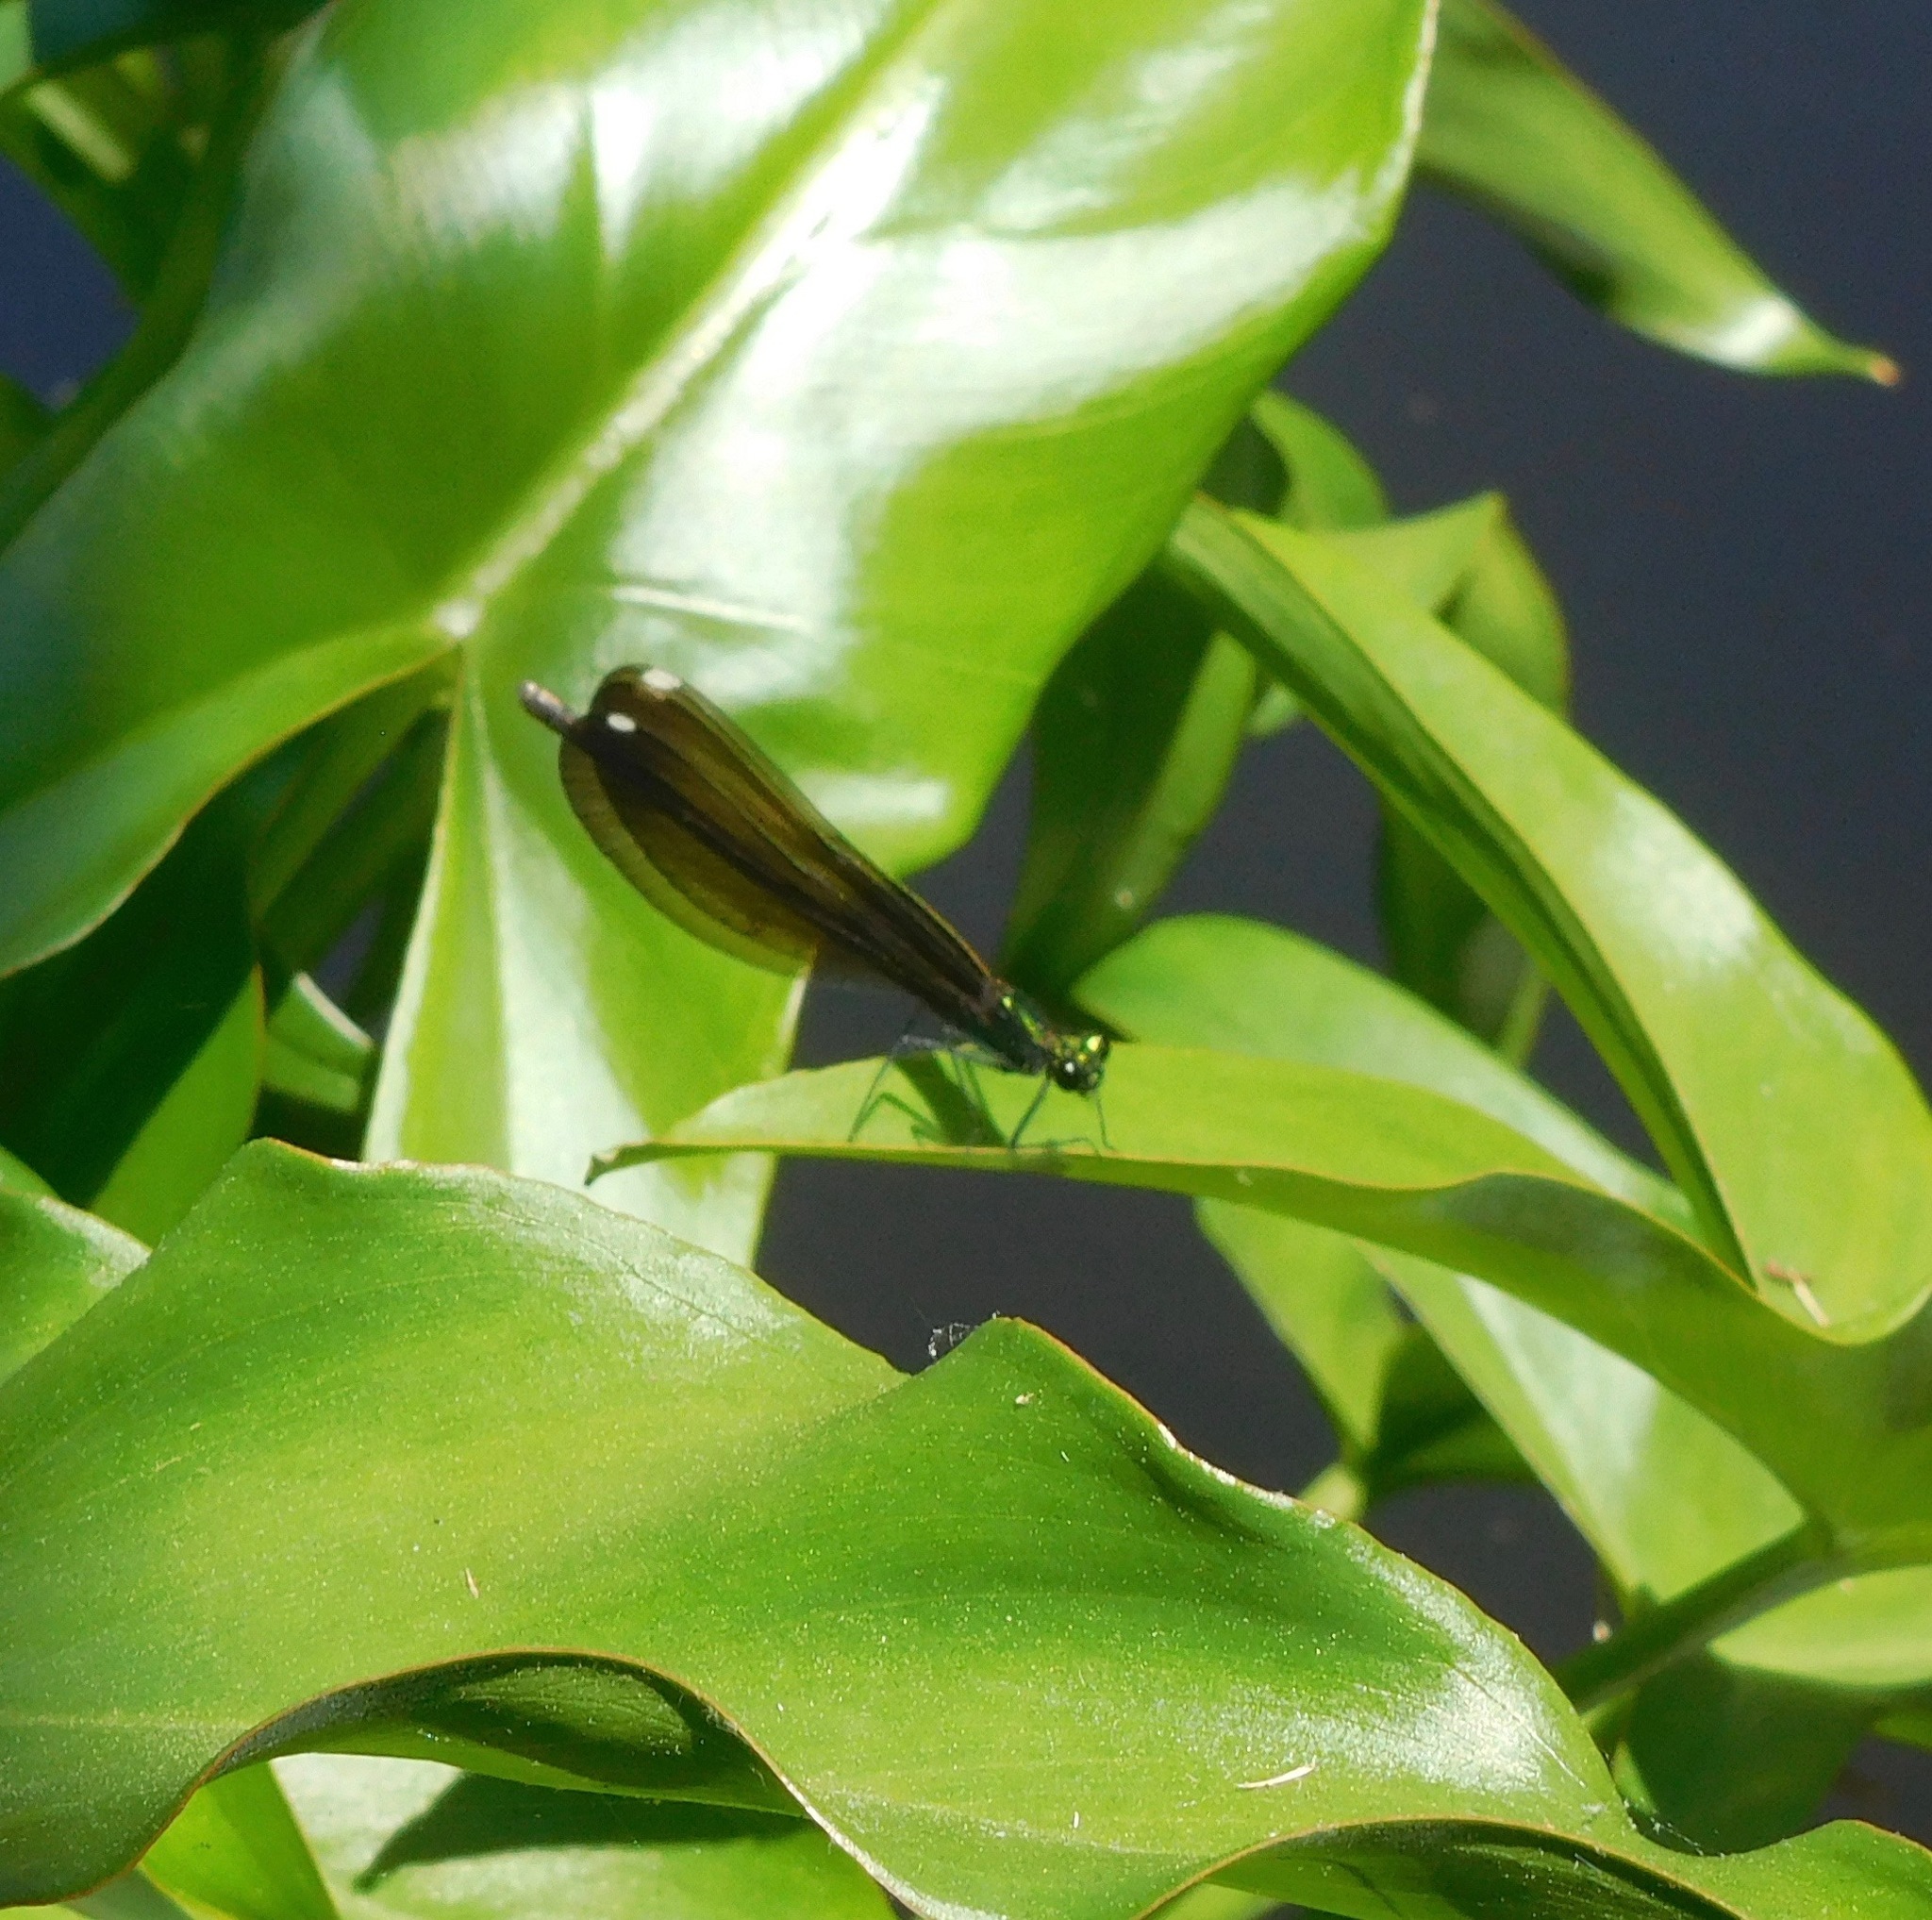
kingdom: Animalia
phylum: Arthropoda
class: Insecta
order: Odonata
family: Calopterygidae
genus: Calopteryx
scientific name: Calopteryx maculata
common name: Ebony jewelwing
